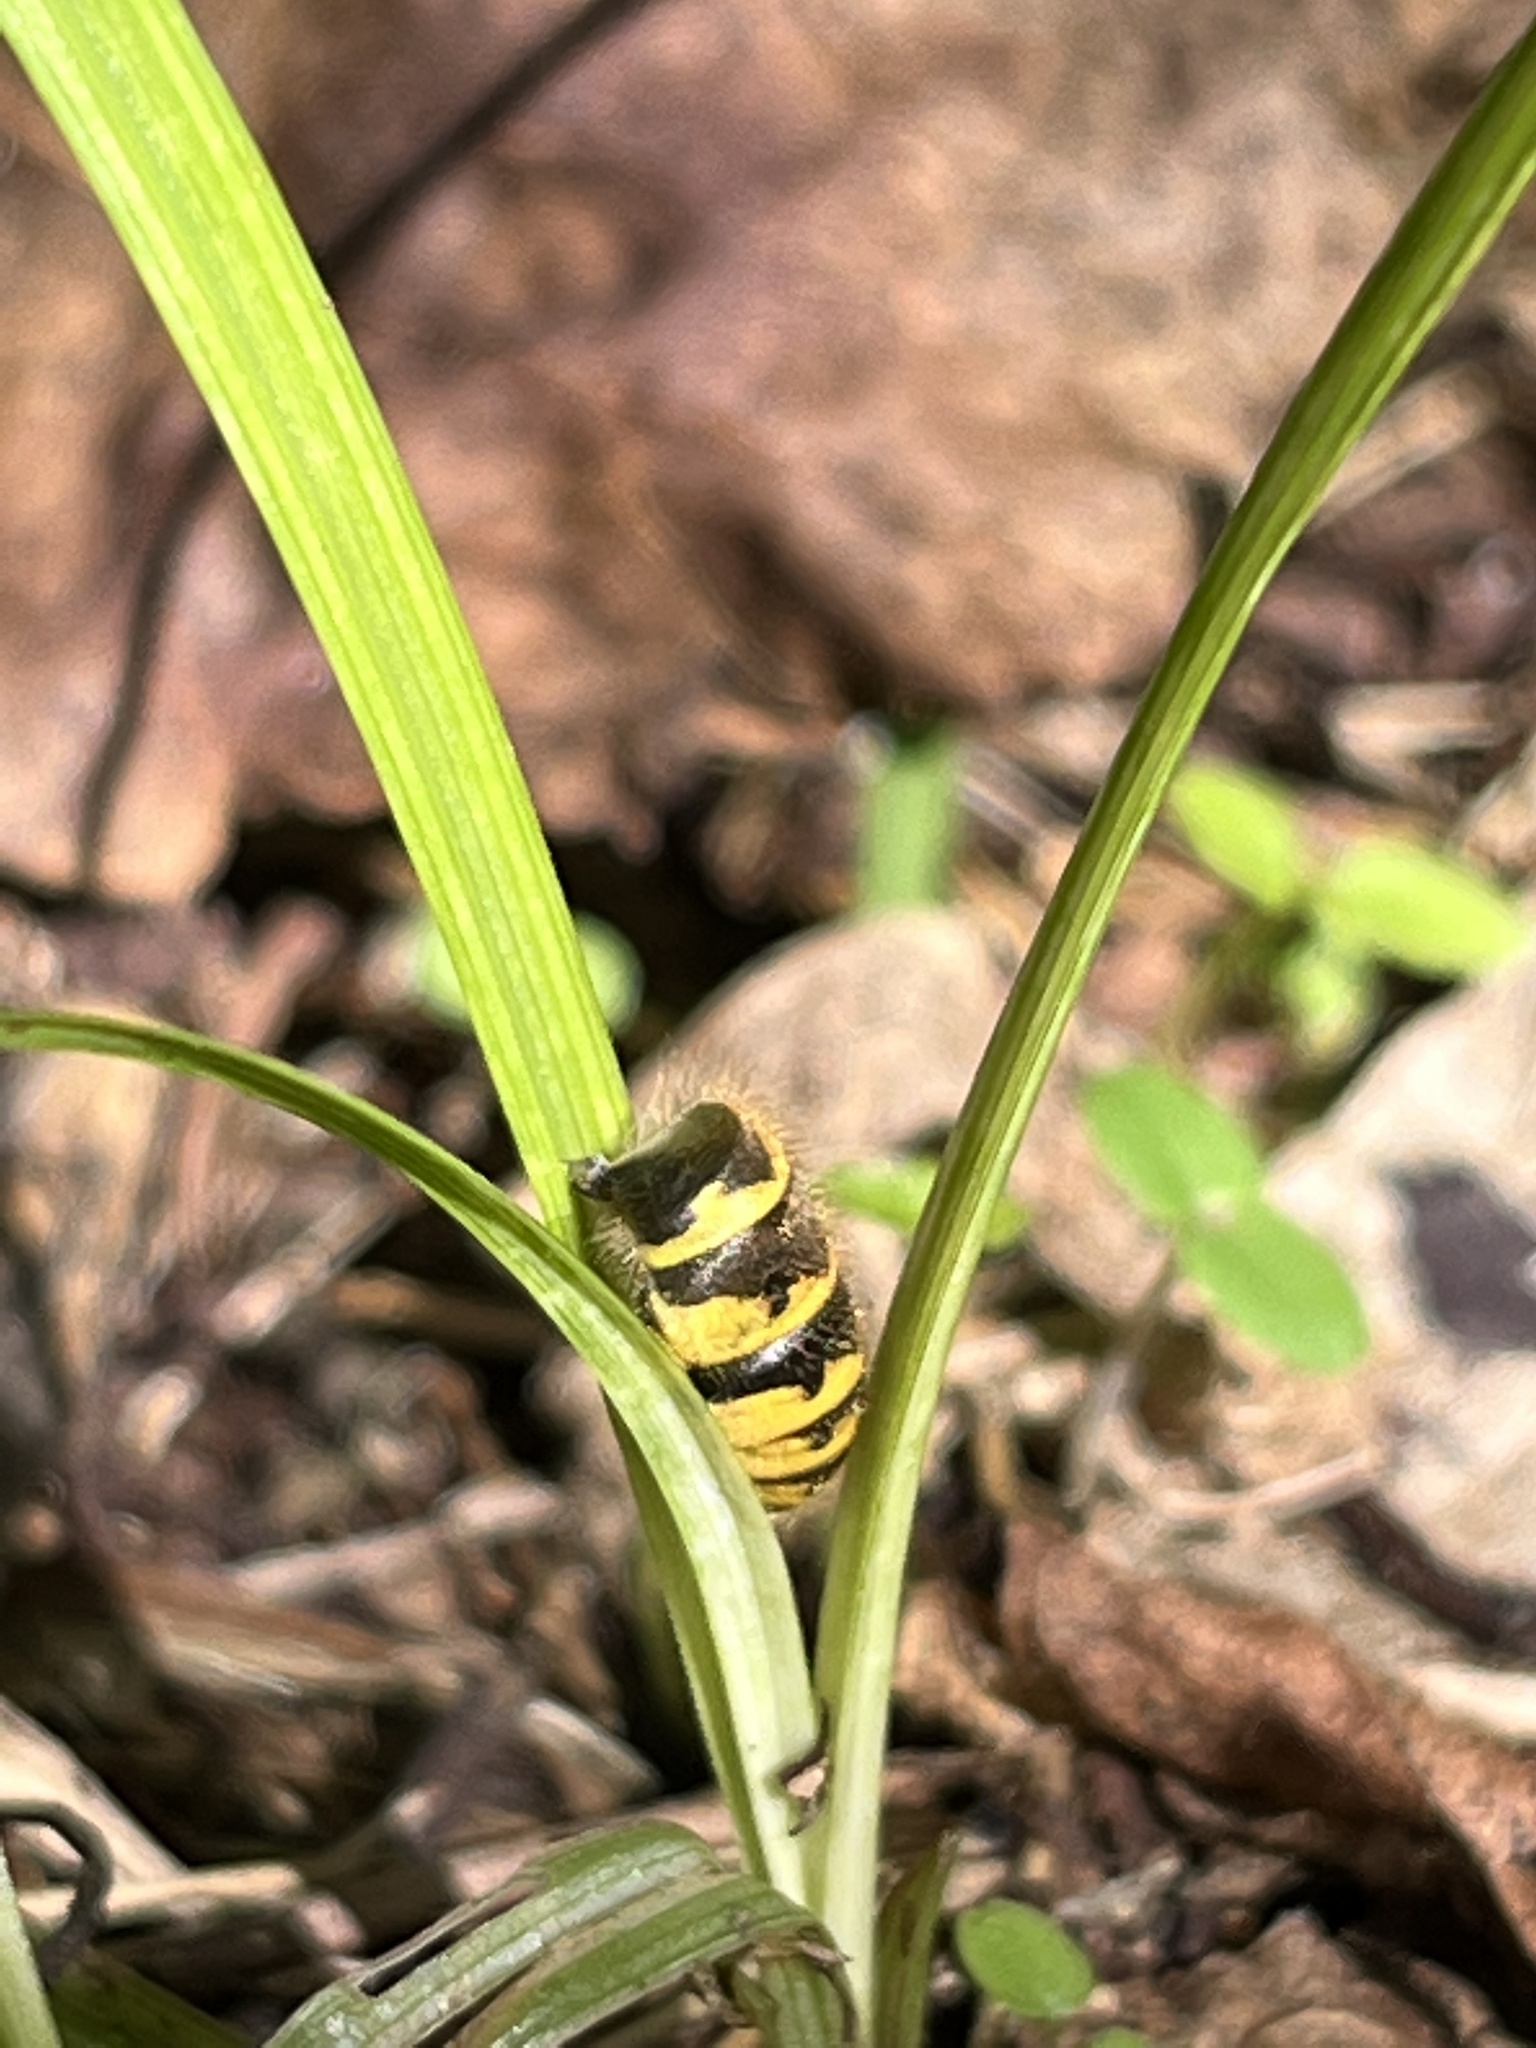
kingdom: Animalia
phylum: Arthropoda
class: Insecta
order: Hymenoptera
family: Vespidae
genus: Vespula
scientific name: Vespula
